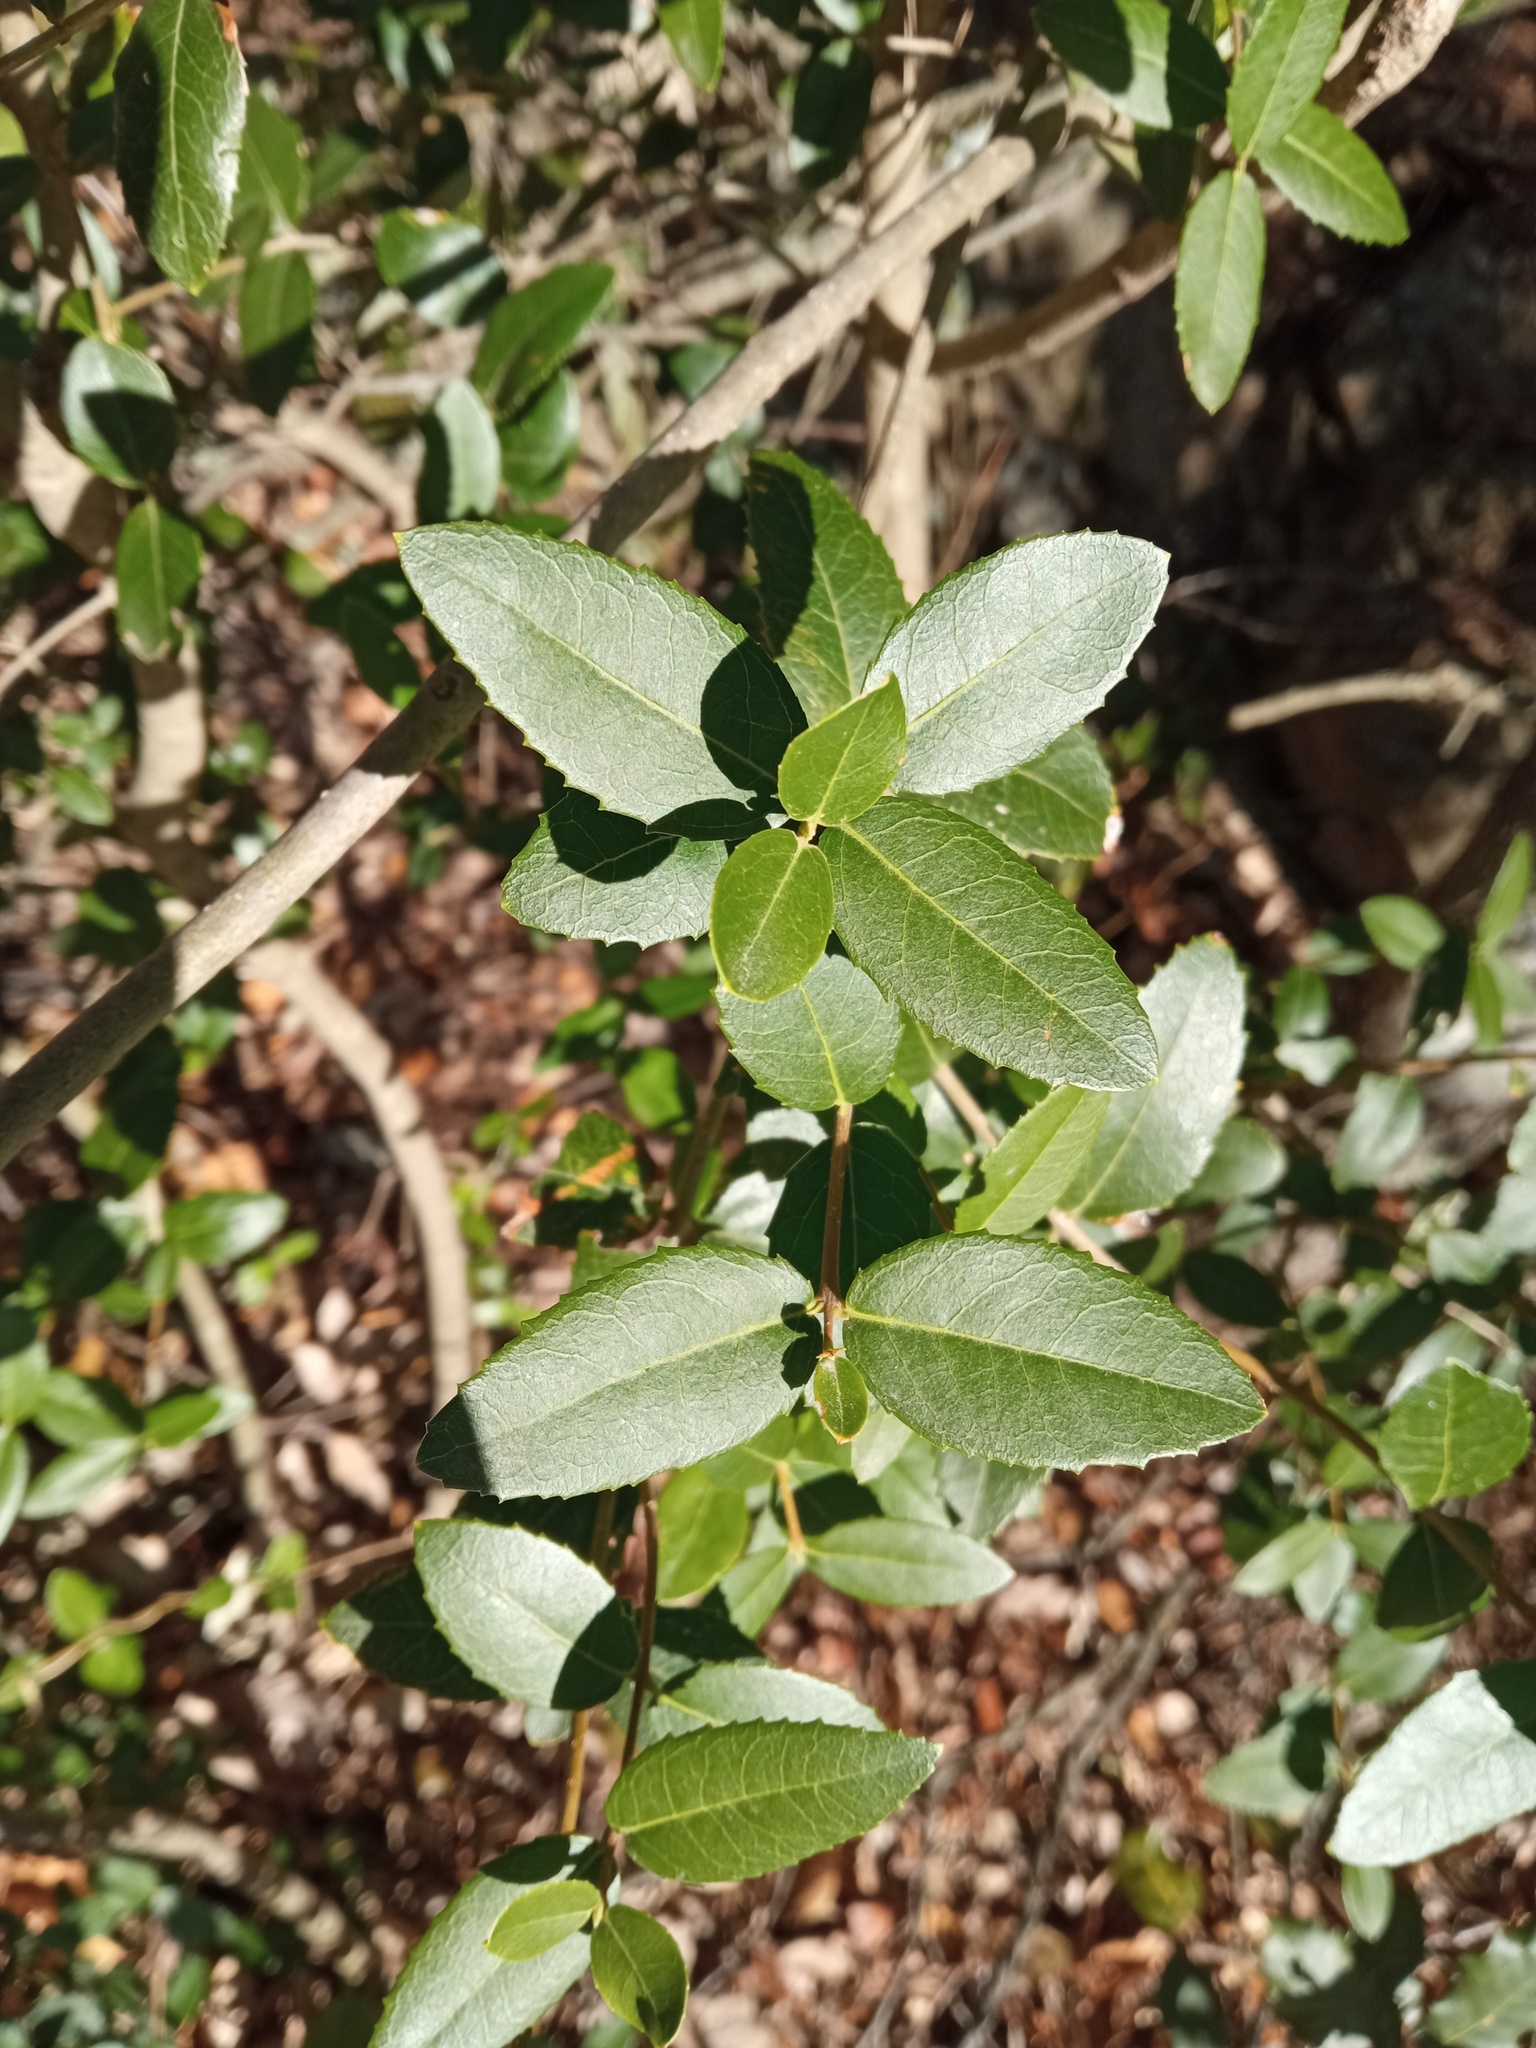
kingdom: Plantae
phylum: Tracheophyta
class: Magnoliopsida
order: Lamiales
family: Oleaceae
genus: Phillyrea
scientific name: Phillyrea latifolia
